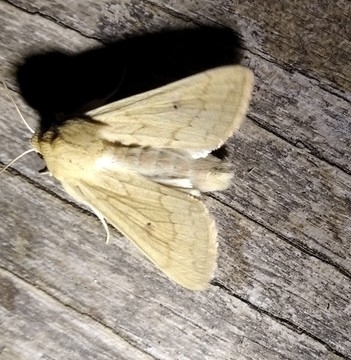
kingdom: Animalia
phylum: Arthropoda
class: Insecta
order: Lepidoptera
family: Noctuidae
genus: Mythimna
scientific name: Mythimna vitellina
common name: Delicate
